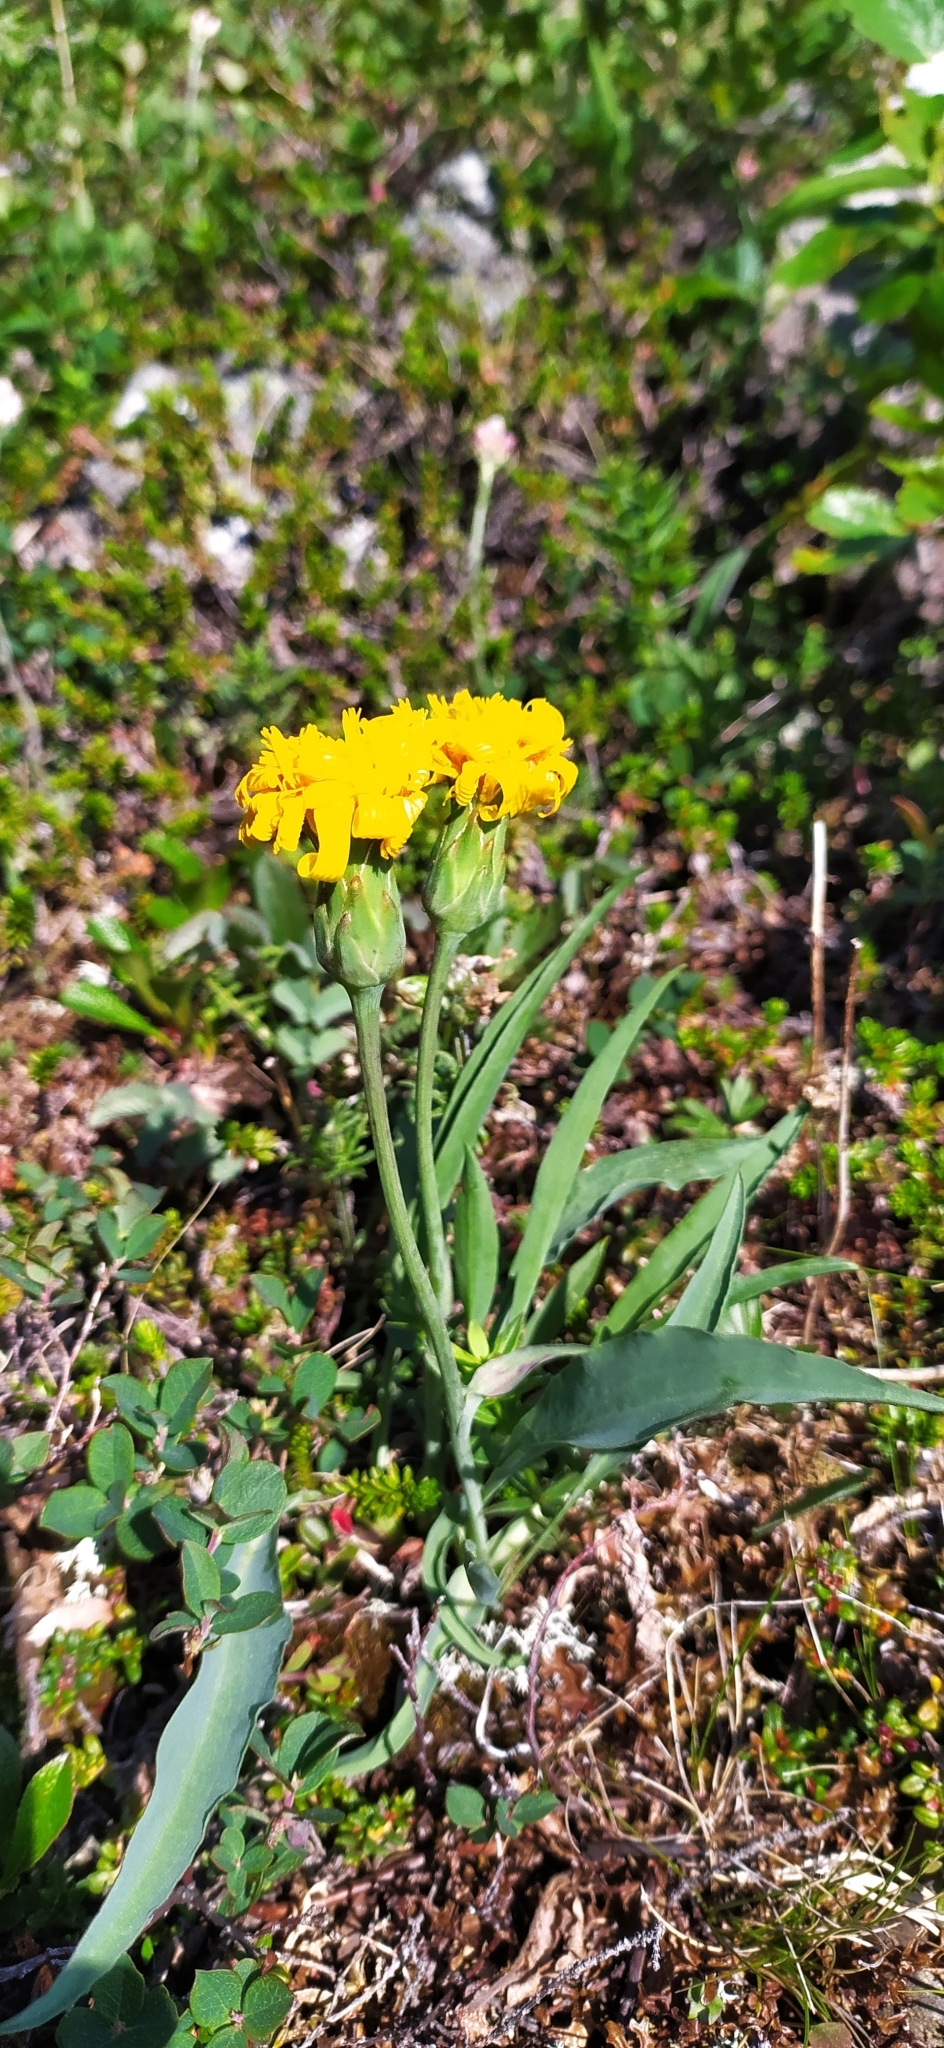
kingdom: Plantae
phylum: Tracheophyta
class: Magnoliopsida
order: Asterales
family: Asteraceae
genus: Scorzonera
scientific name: Scorzonera glabra
